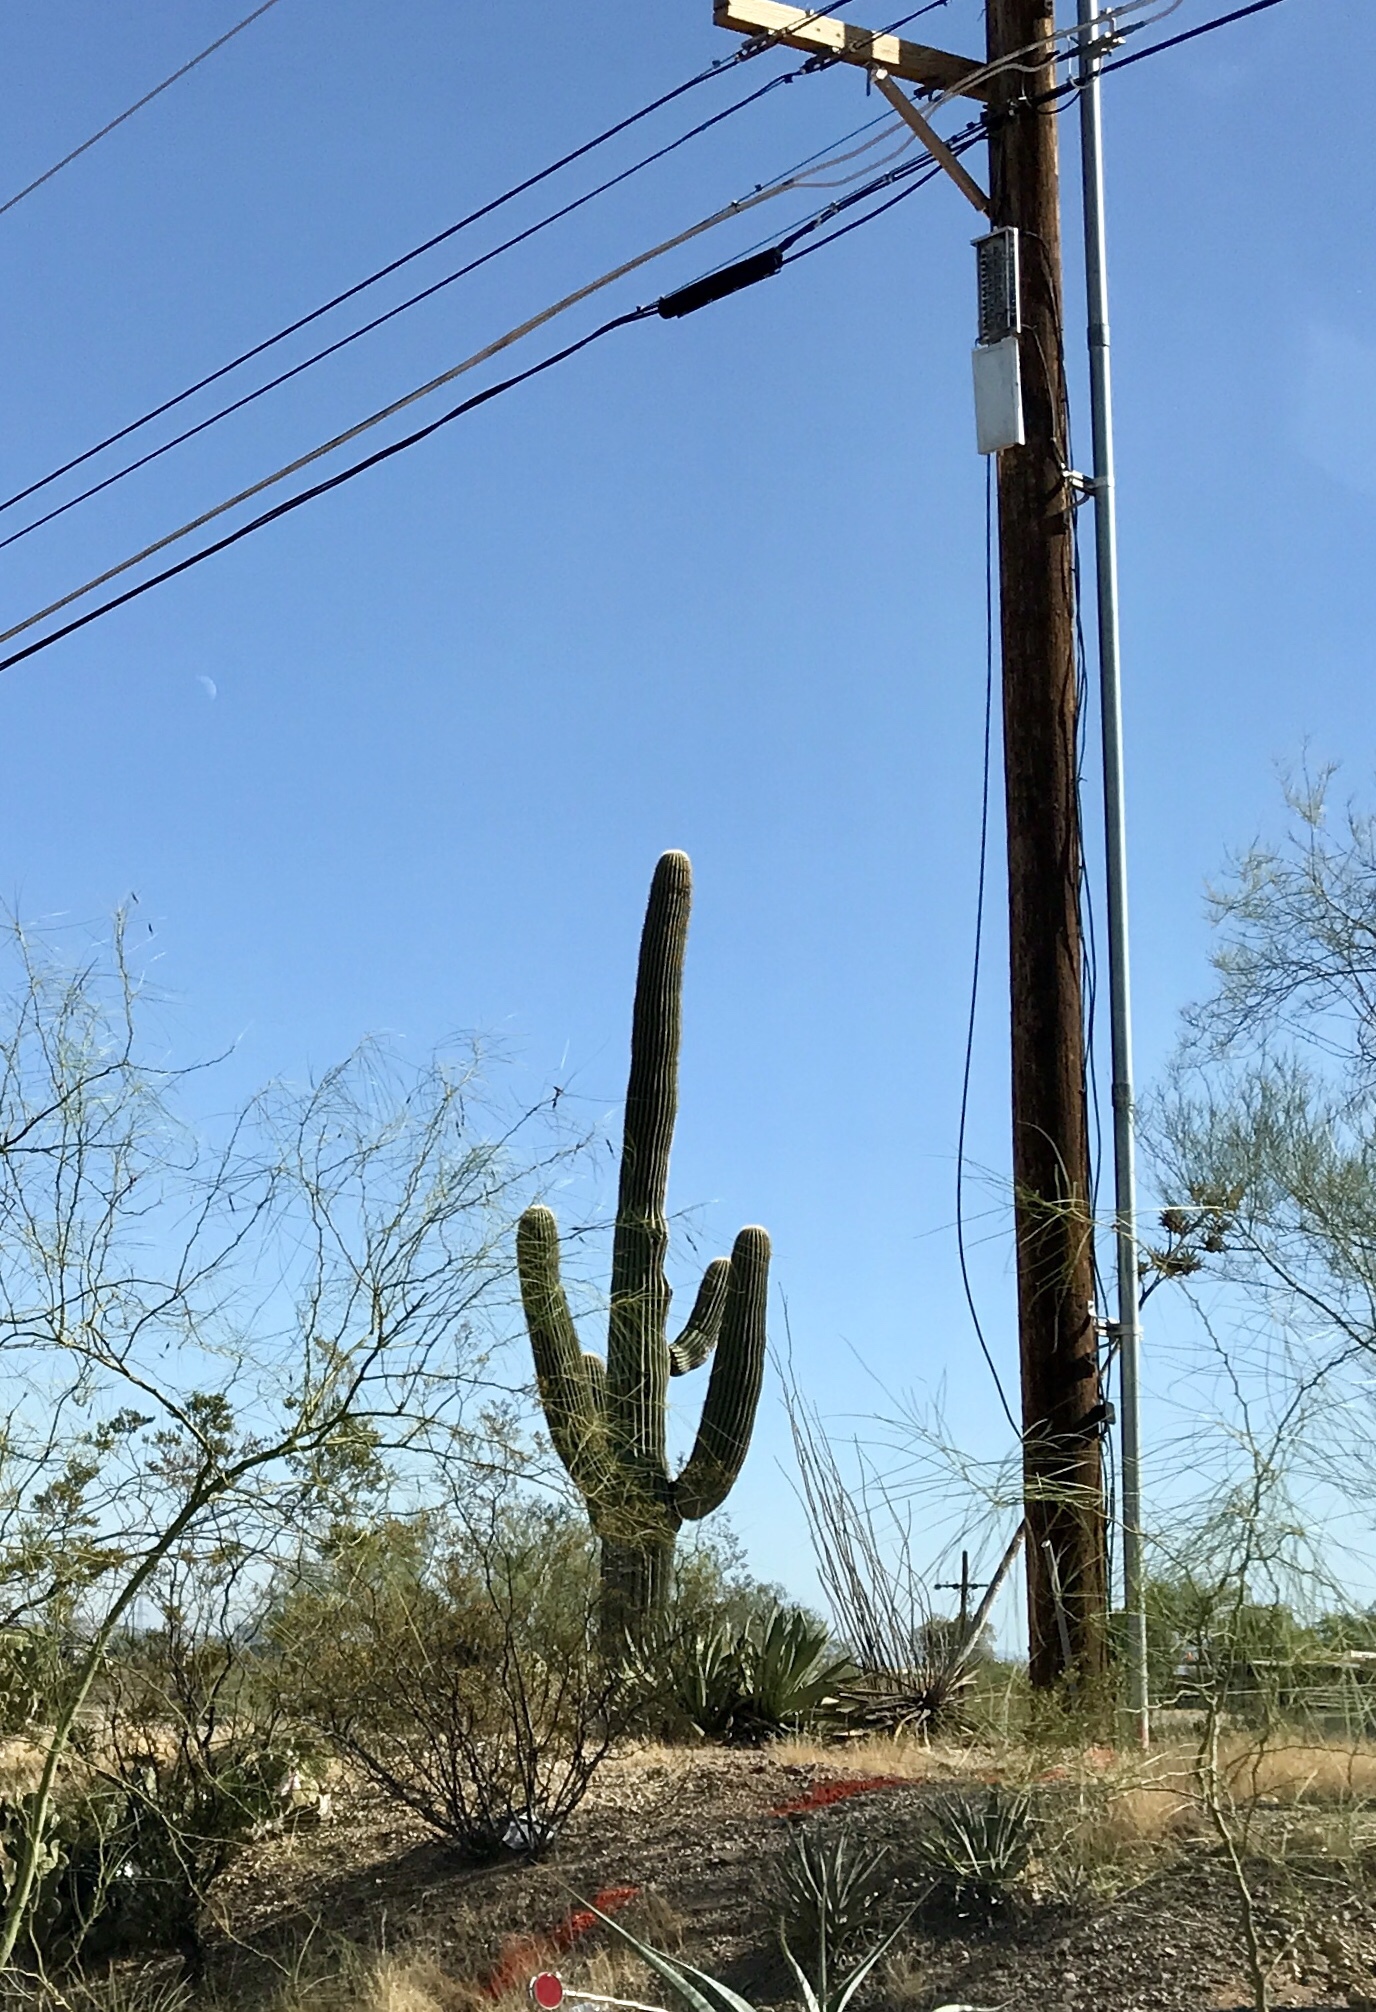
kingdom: Plantae
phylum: Tracheophyta
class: Magnoliopsida
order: Caryophyllales
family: Cactaceae
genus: Carnegiea
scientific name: Carnegiea gigantea
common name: Saguaro
